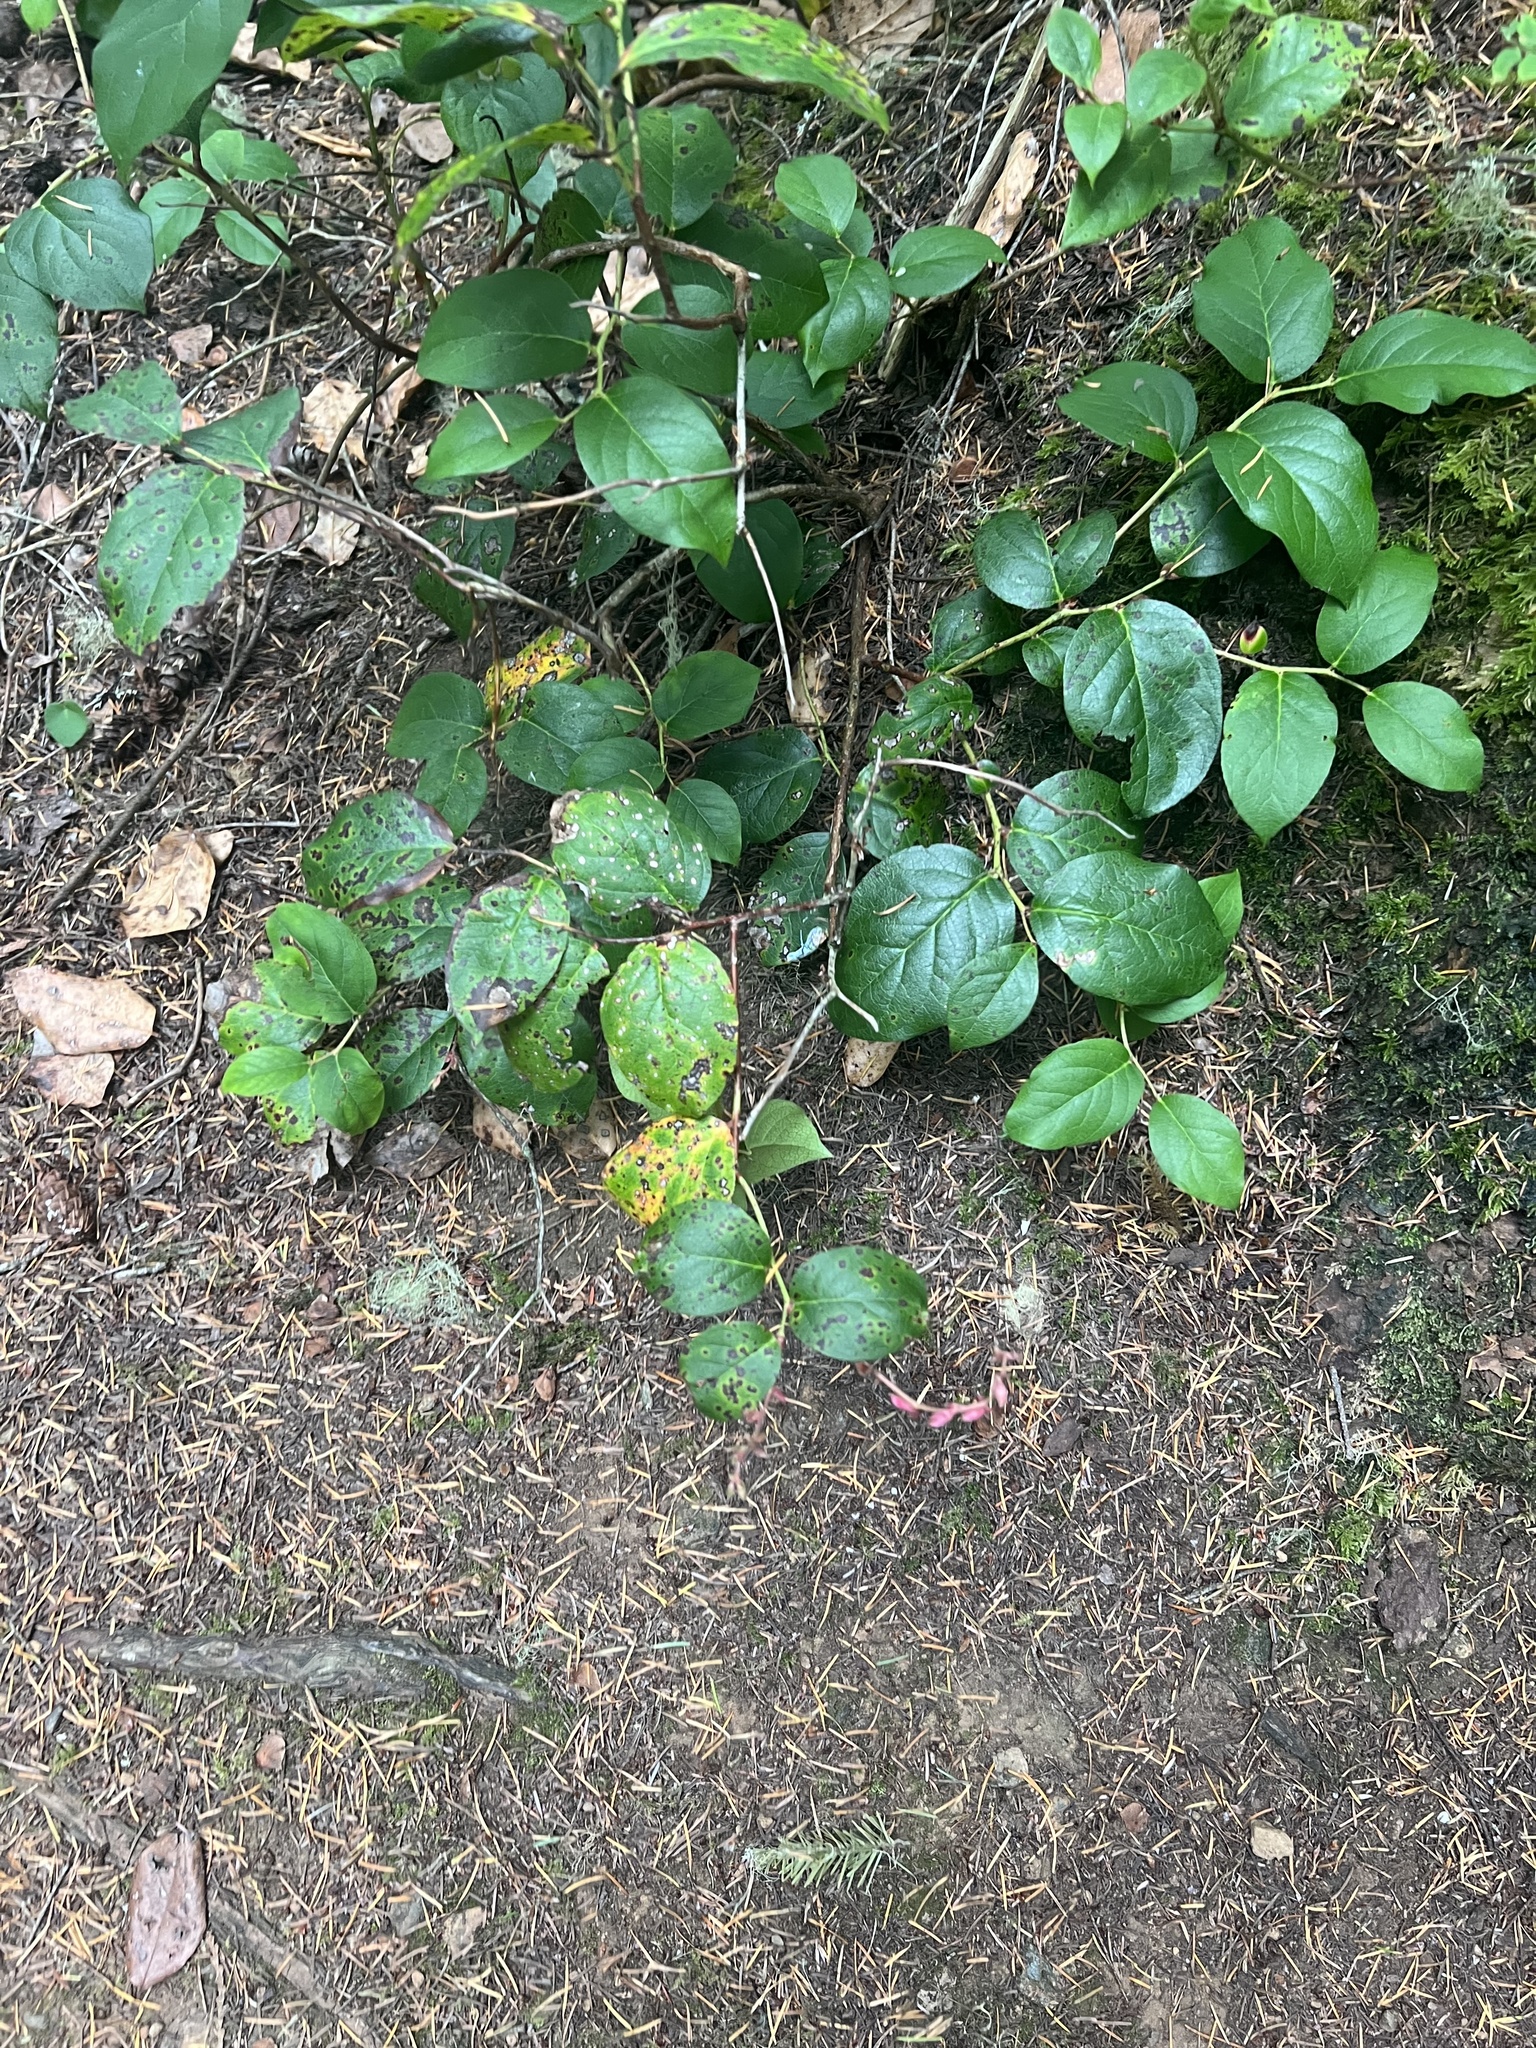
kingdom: Plantae
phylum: Tracheophyta
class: Magnoliopsida
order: Ericales
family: Ericaceae
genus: Gaultheria
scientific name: Gaultheria shallon
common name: Shallon
